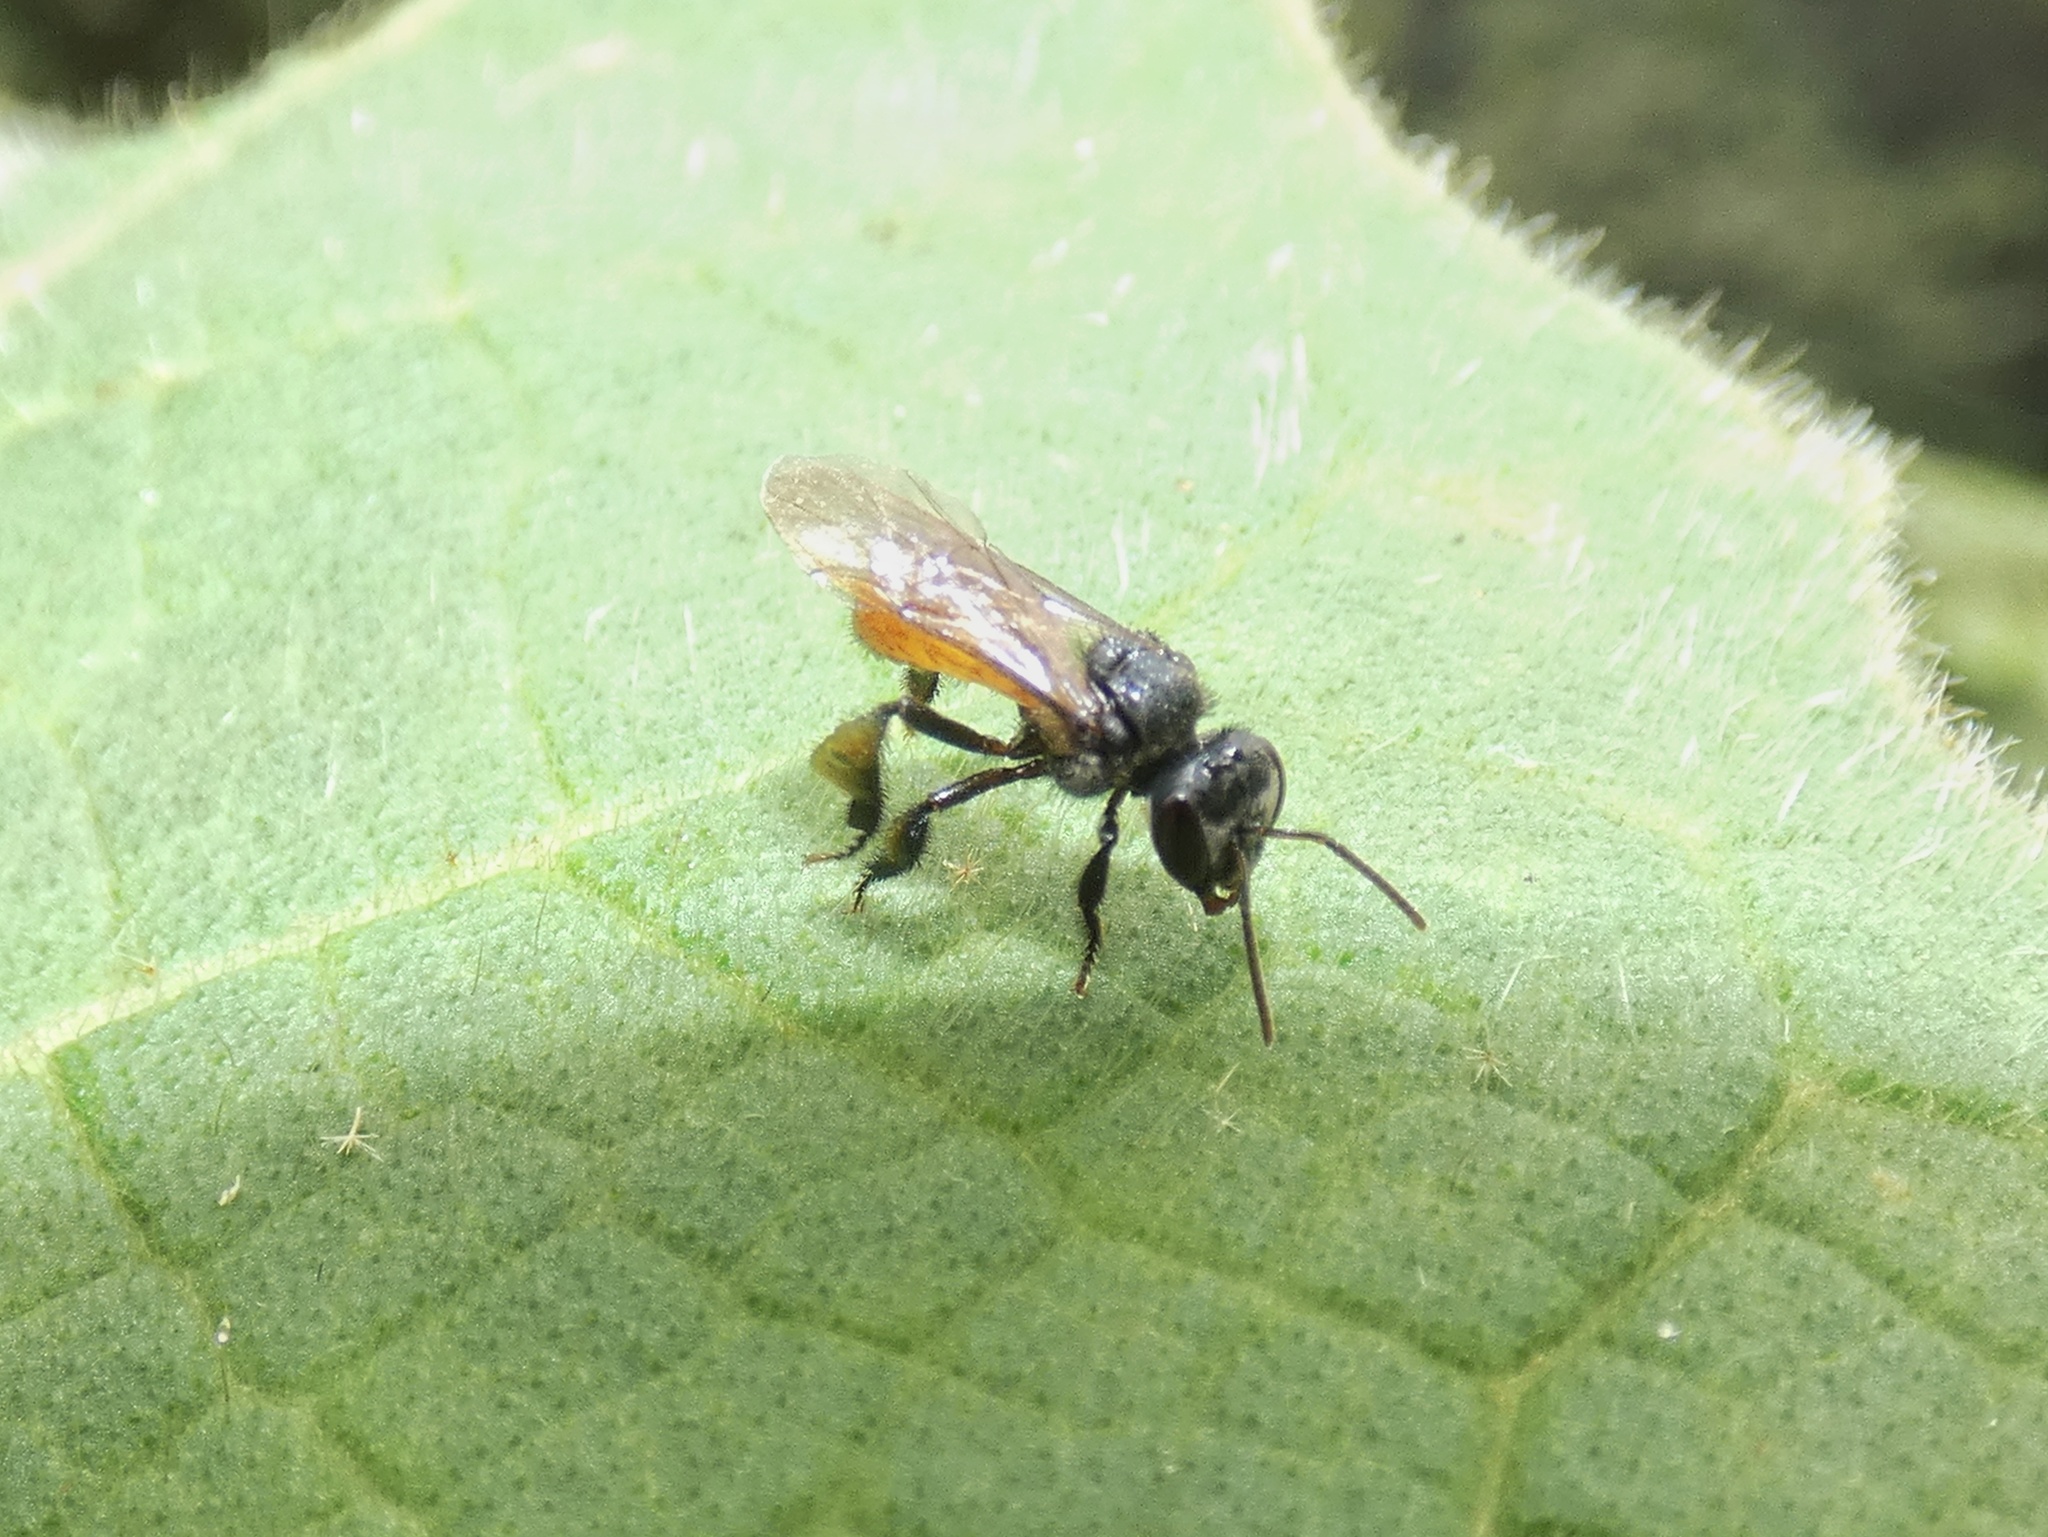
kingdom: Animalia
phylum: Arthropoda
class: Insecta
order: Hymenoptera
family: Apidae
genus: Trigona
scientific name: Trigona fulviventris
